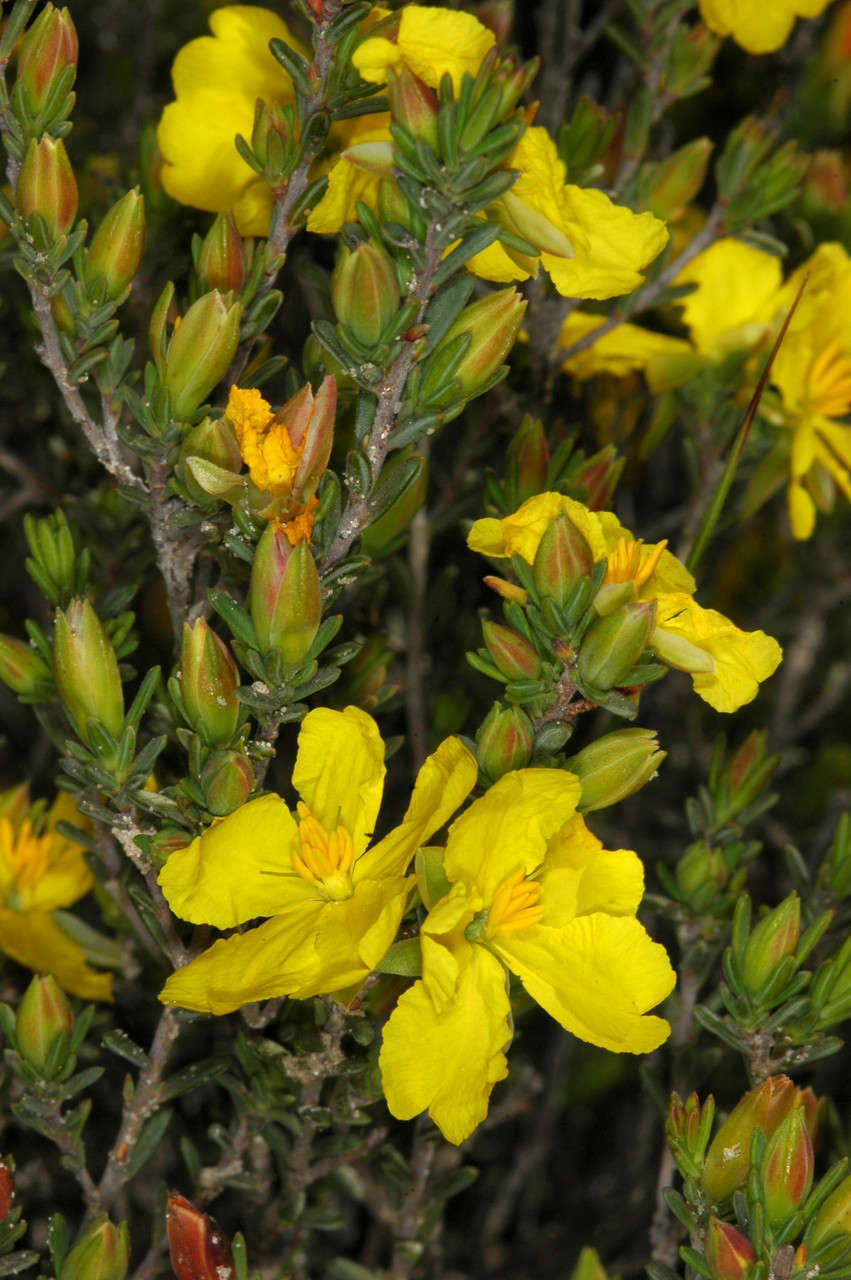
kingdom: Plantae
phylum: Tracheophyta
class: Magnoliopsida
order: Dilleniales
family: Dilleniaceae
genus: Hibbertia
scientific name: Hibbertia devitata
